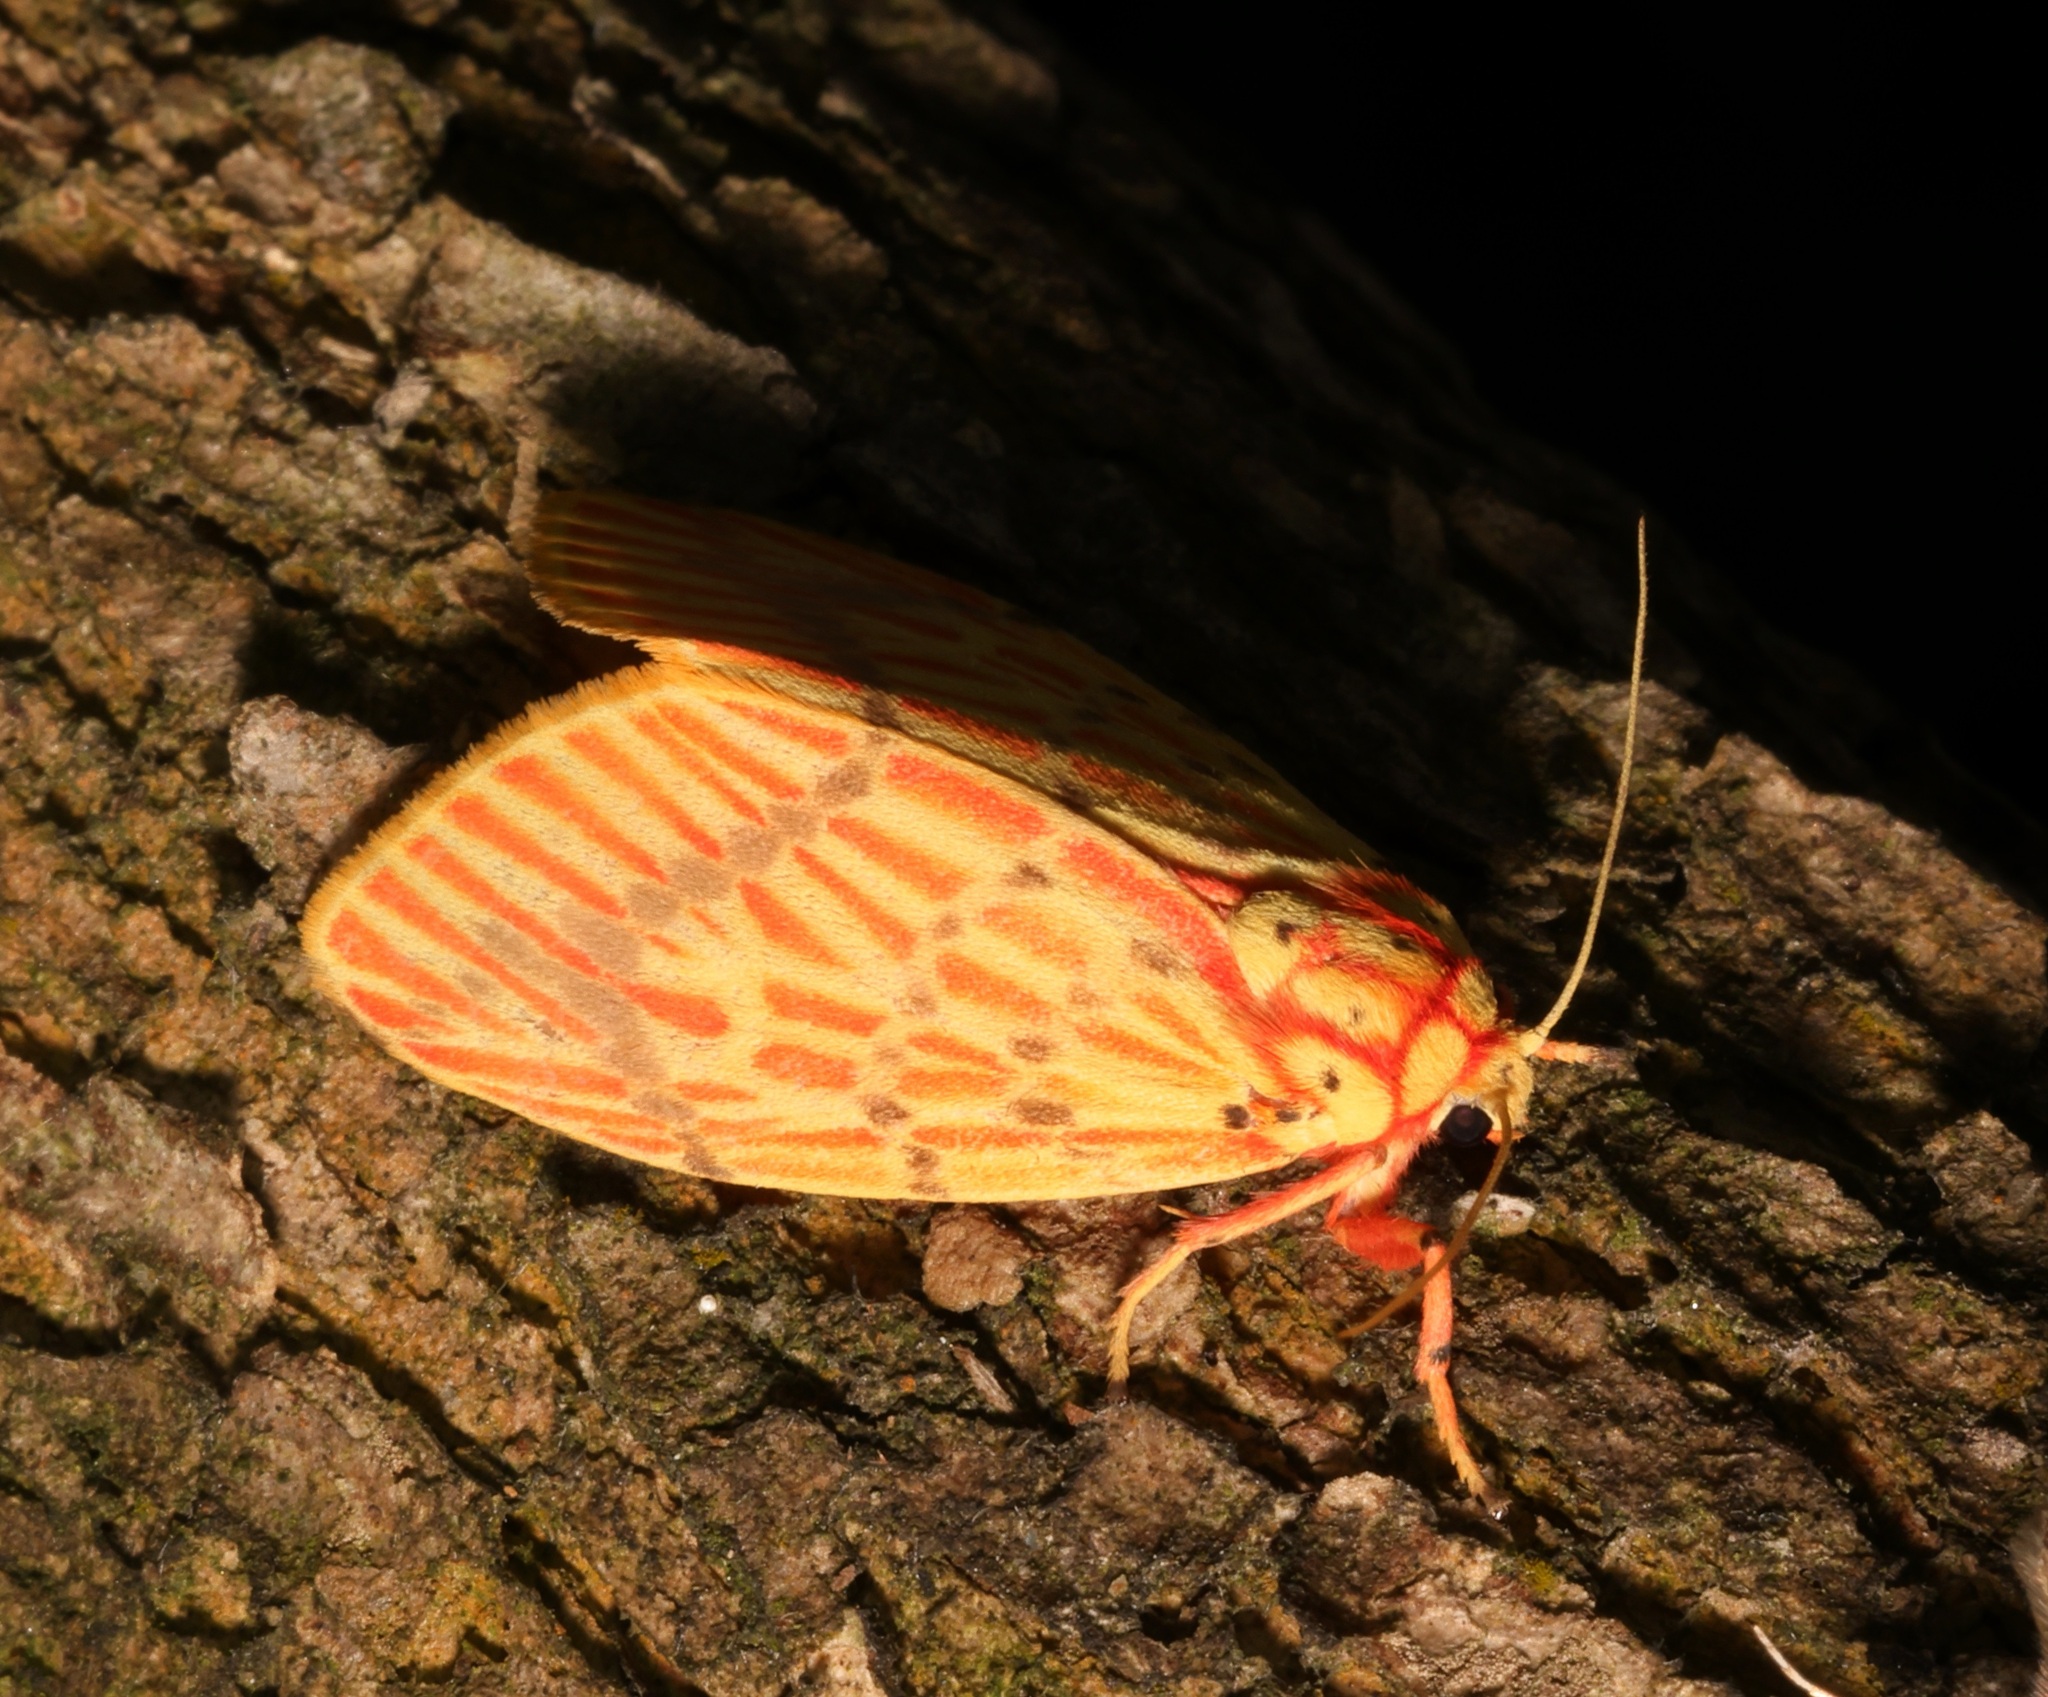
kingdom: Animalia
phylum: Arthropoda
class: Insecta
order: Lepidoptera
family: Erebidae
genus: Barsine
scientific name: Barsine striata
